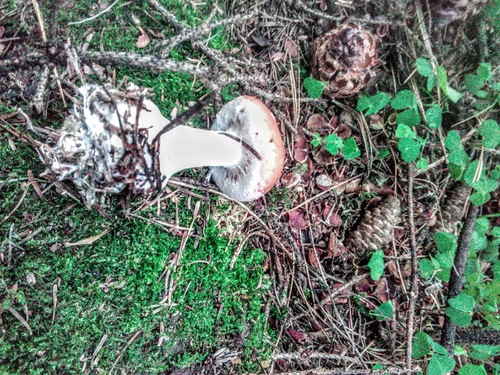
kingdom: Fungi
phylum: Basidiomycota
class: Agaricomycetes
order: Agaricales
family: Tricholomataceae
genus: Leucocortinarius
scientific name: Leucocortinarius bulbiger
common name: White webcap
